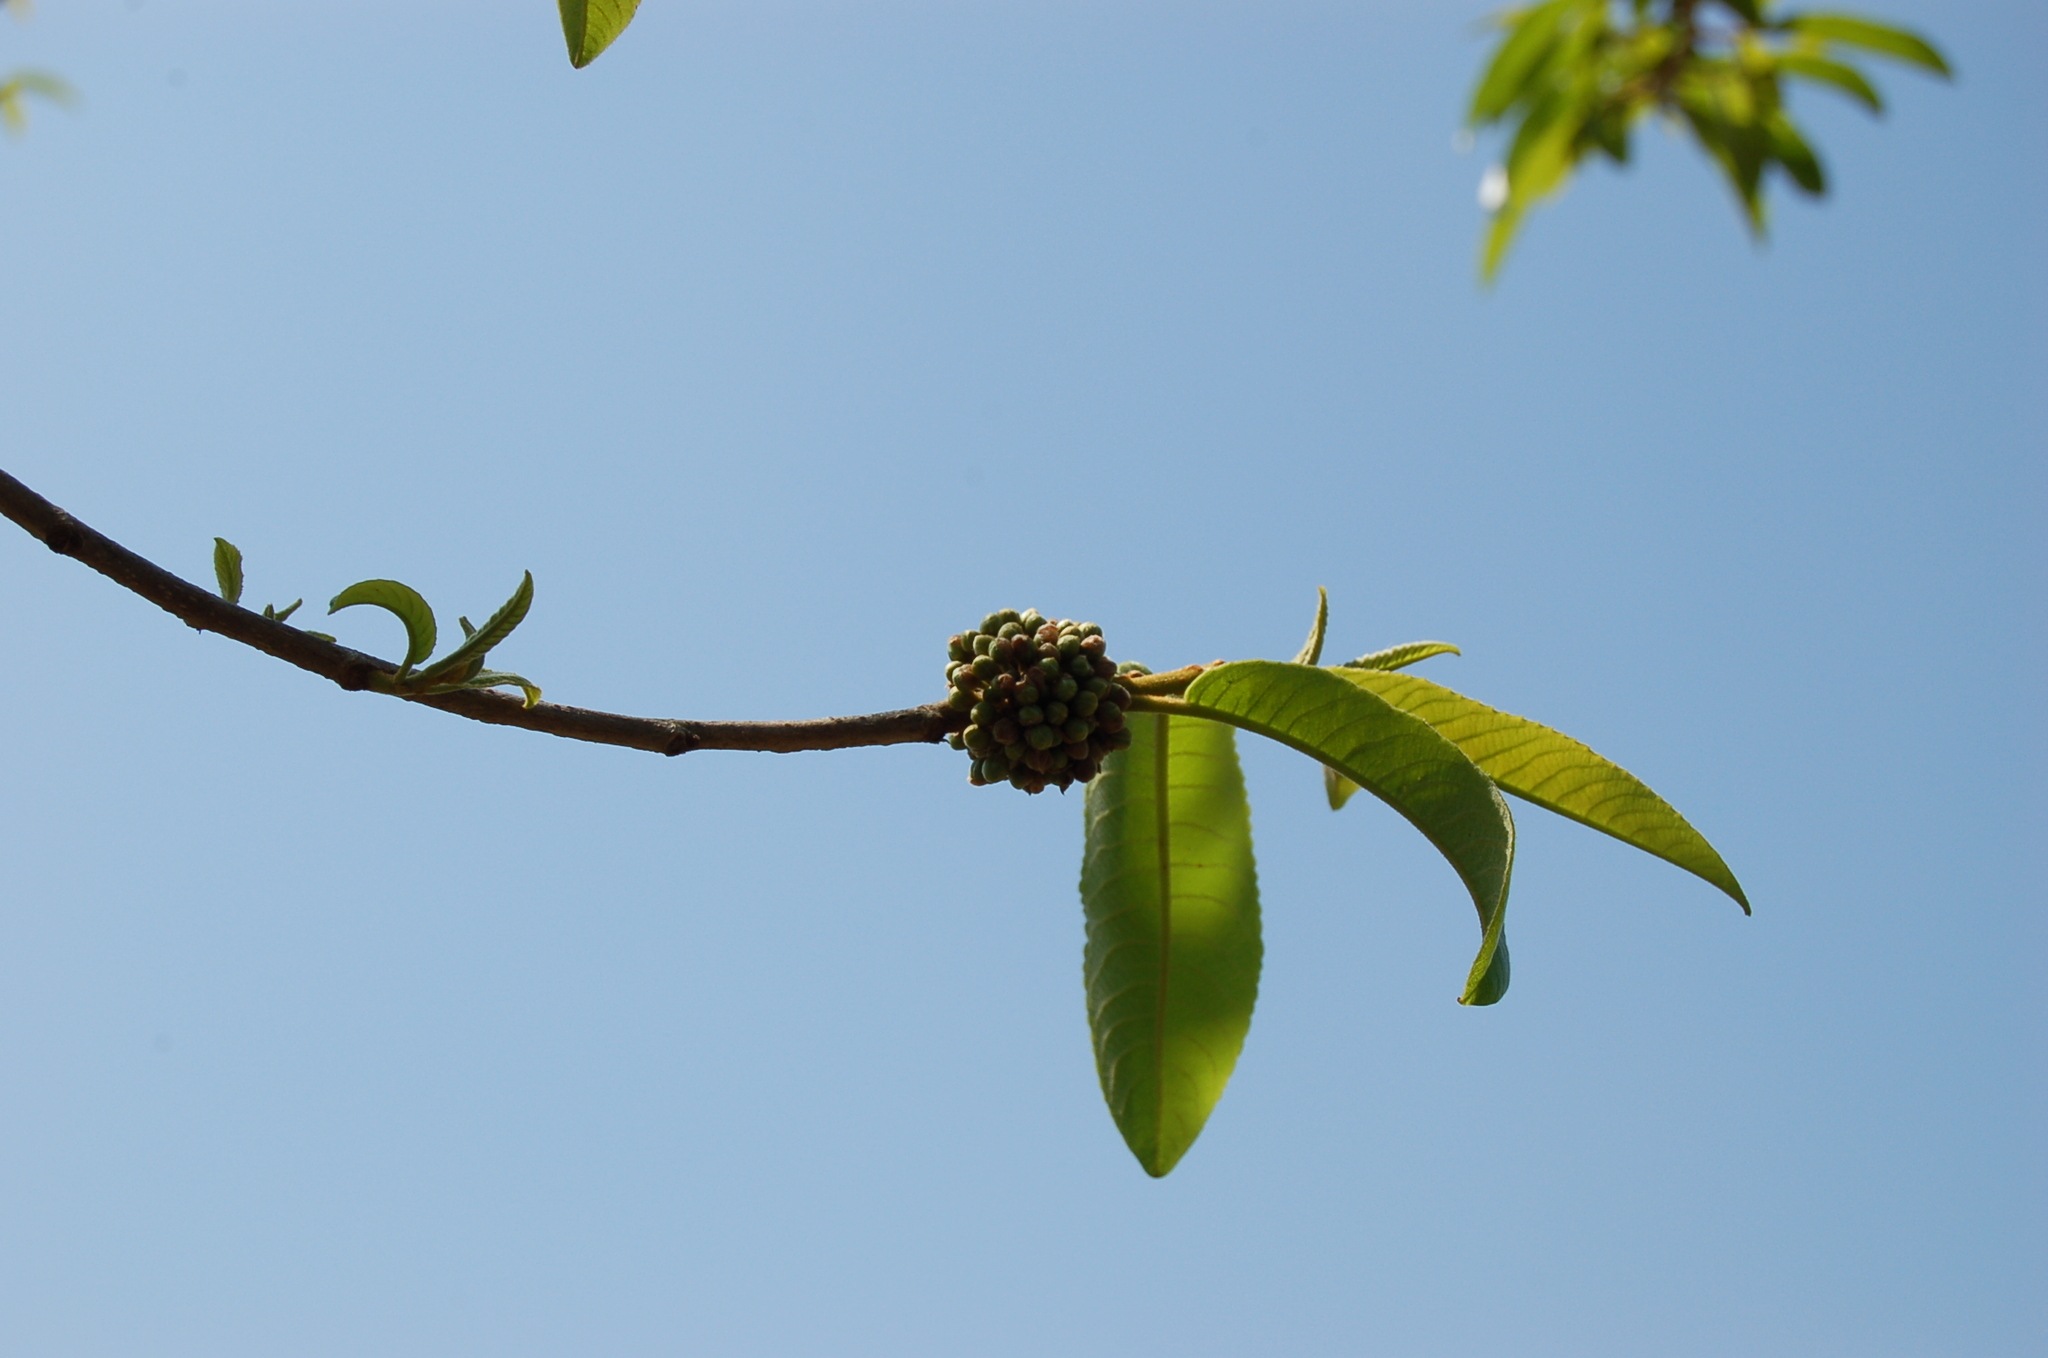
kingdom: Plantae
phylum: Tracheophyta
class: Magnoliopsida
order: Malpighiales
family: Salicaceae
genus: Casearia
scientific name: Casearia icosandra
